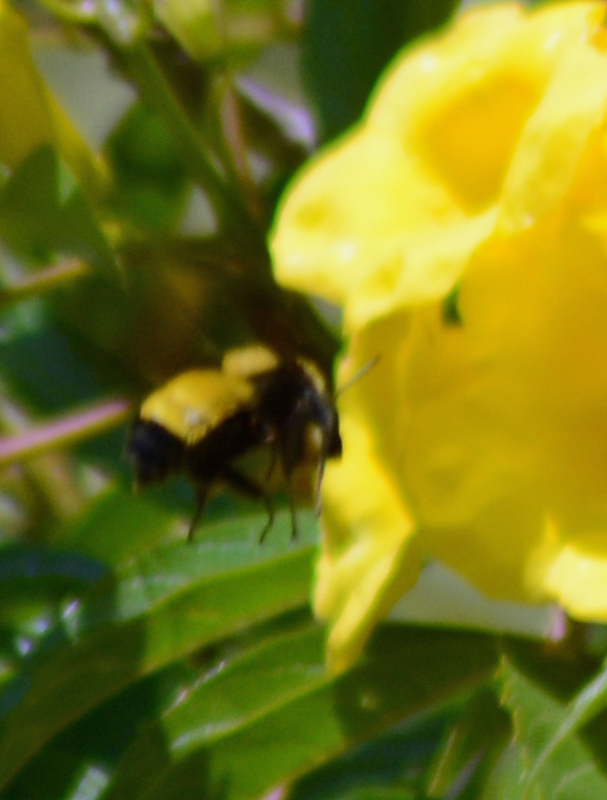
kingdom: Animalia
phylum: Arthropoda
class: Insecta
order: Hymenoptera
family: Apidae
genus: Bombus
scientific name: Bombus sonorus
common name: Sonoran bumble bee
